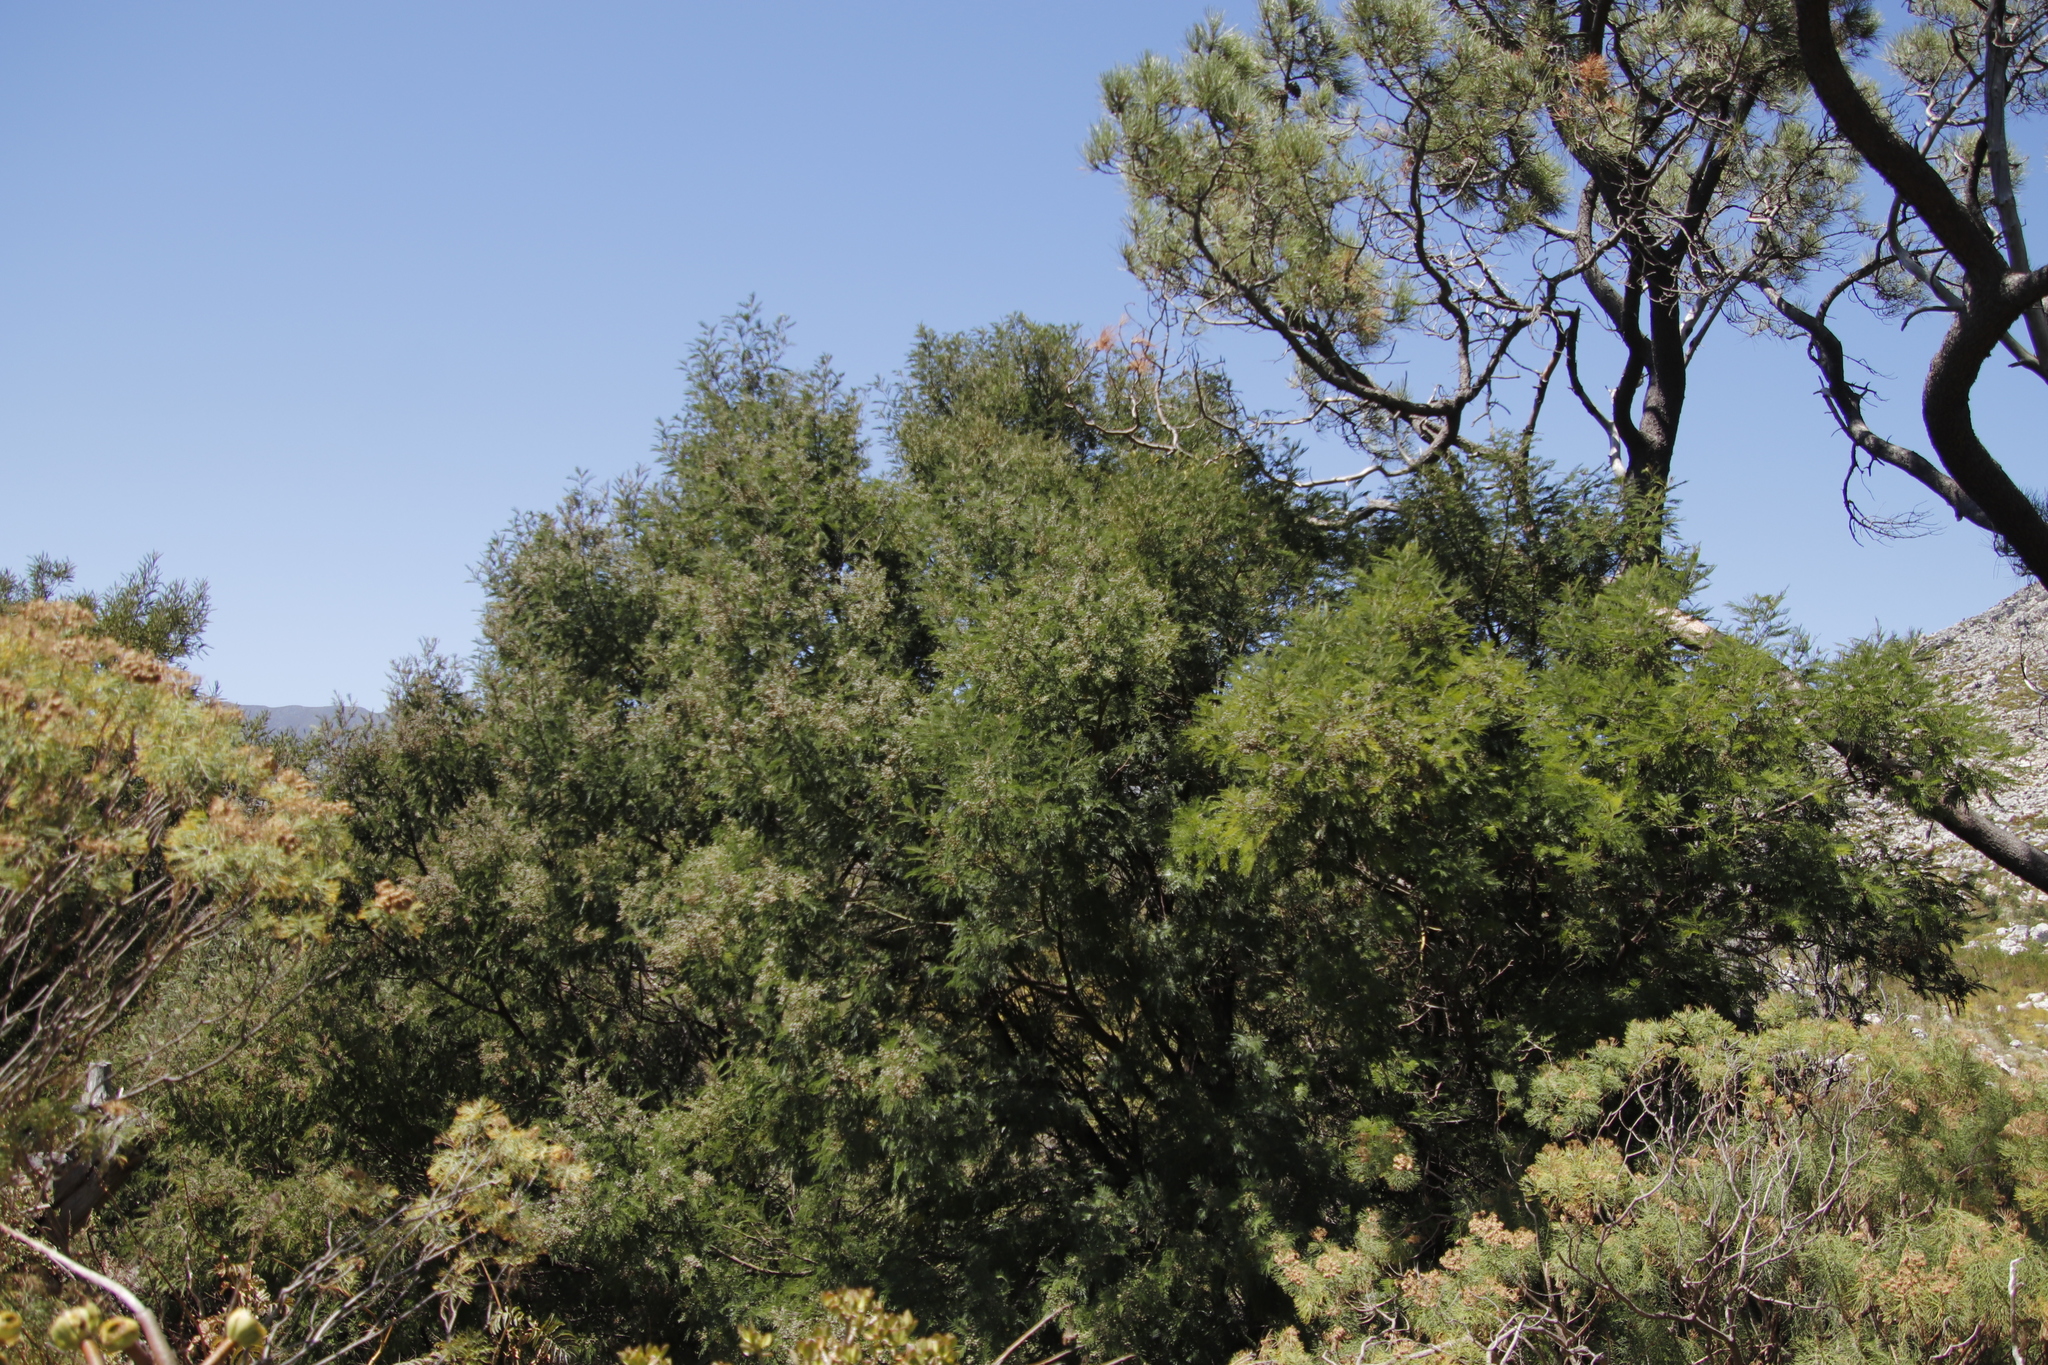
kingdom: Plantae
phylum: Tracheophyta
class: Magnoliopsida
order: Fabales
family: Fabaceae
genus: Acacia
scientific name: Acacia mearnsii
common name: Black wattle
